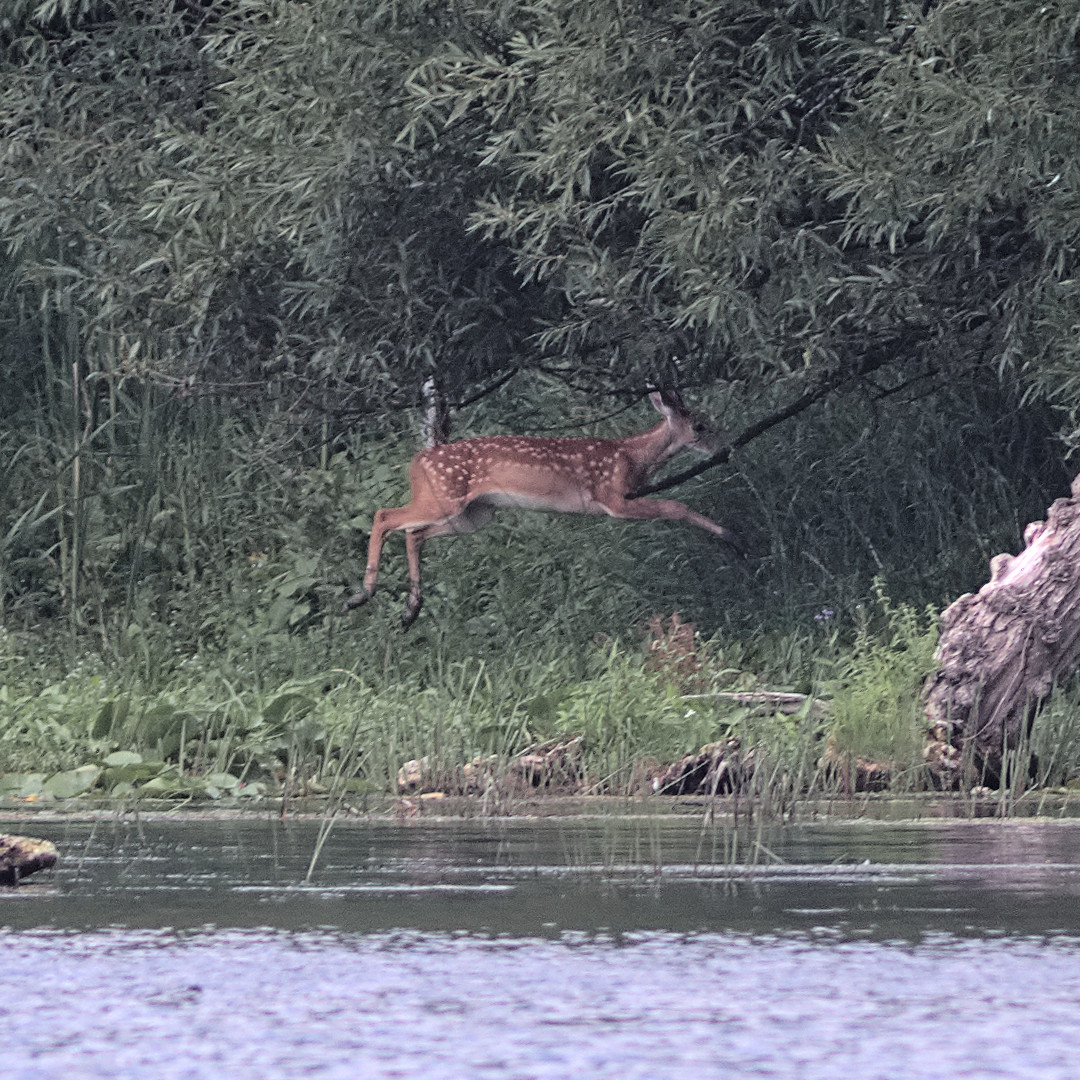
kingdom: Animalia
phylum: Chordata
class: Mammalia
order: Artiodactyla
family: Cervidae
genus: Odocoileus
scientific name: Odocoileus virginianus
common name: White-tailed deer
